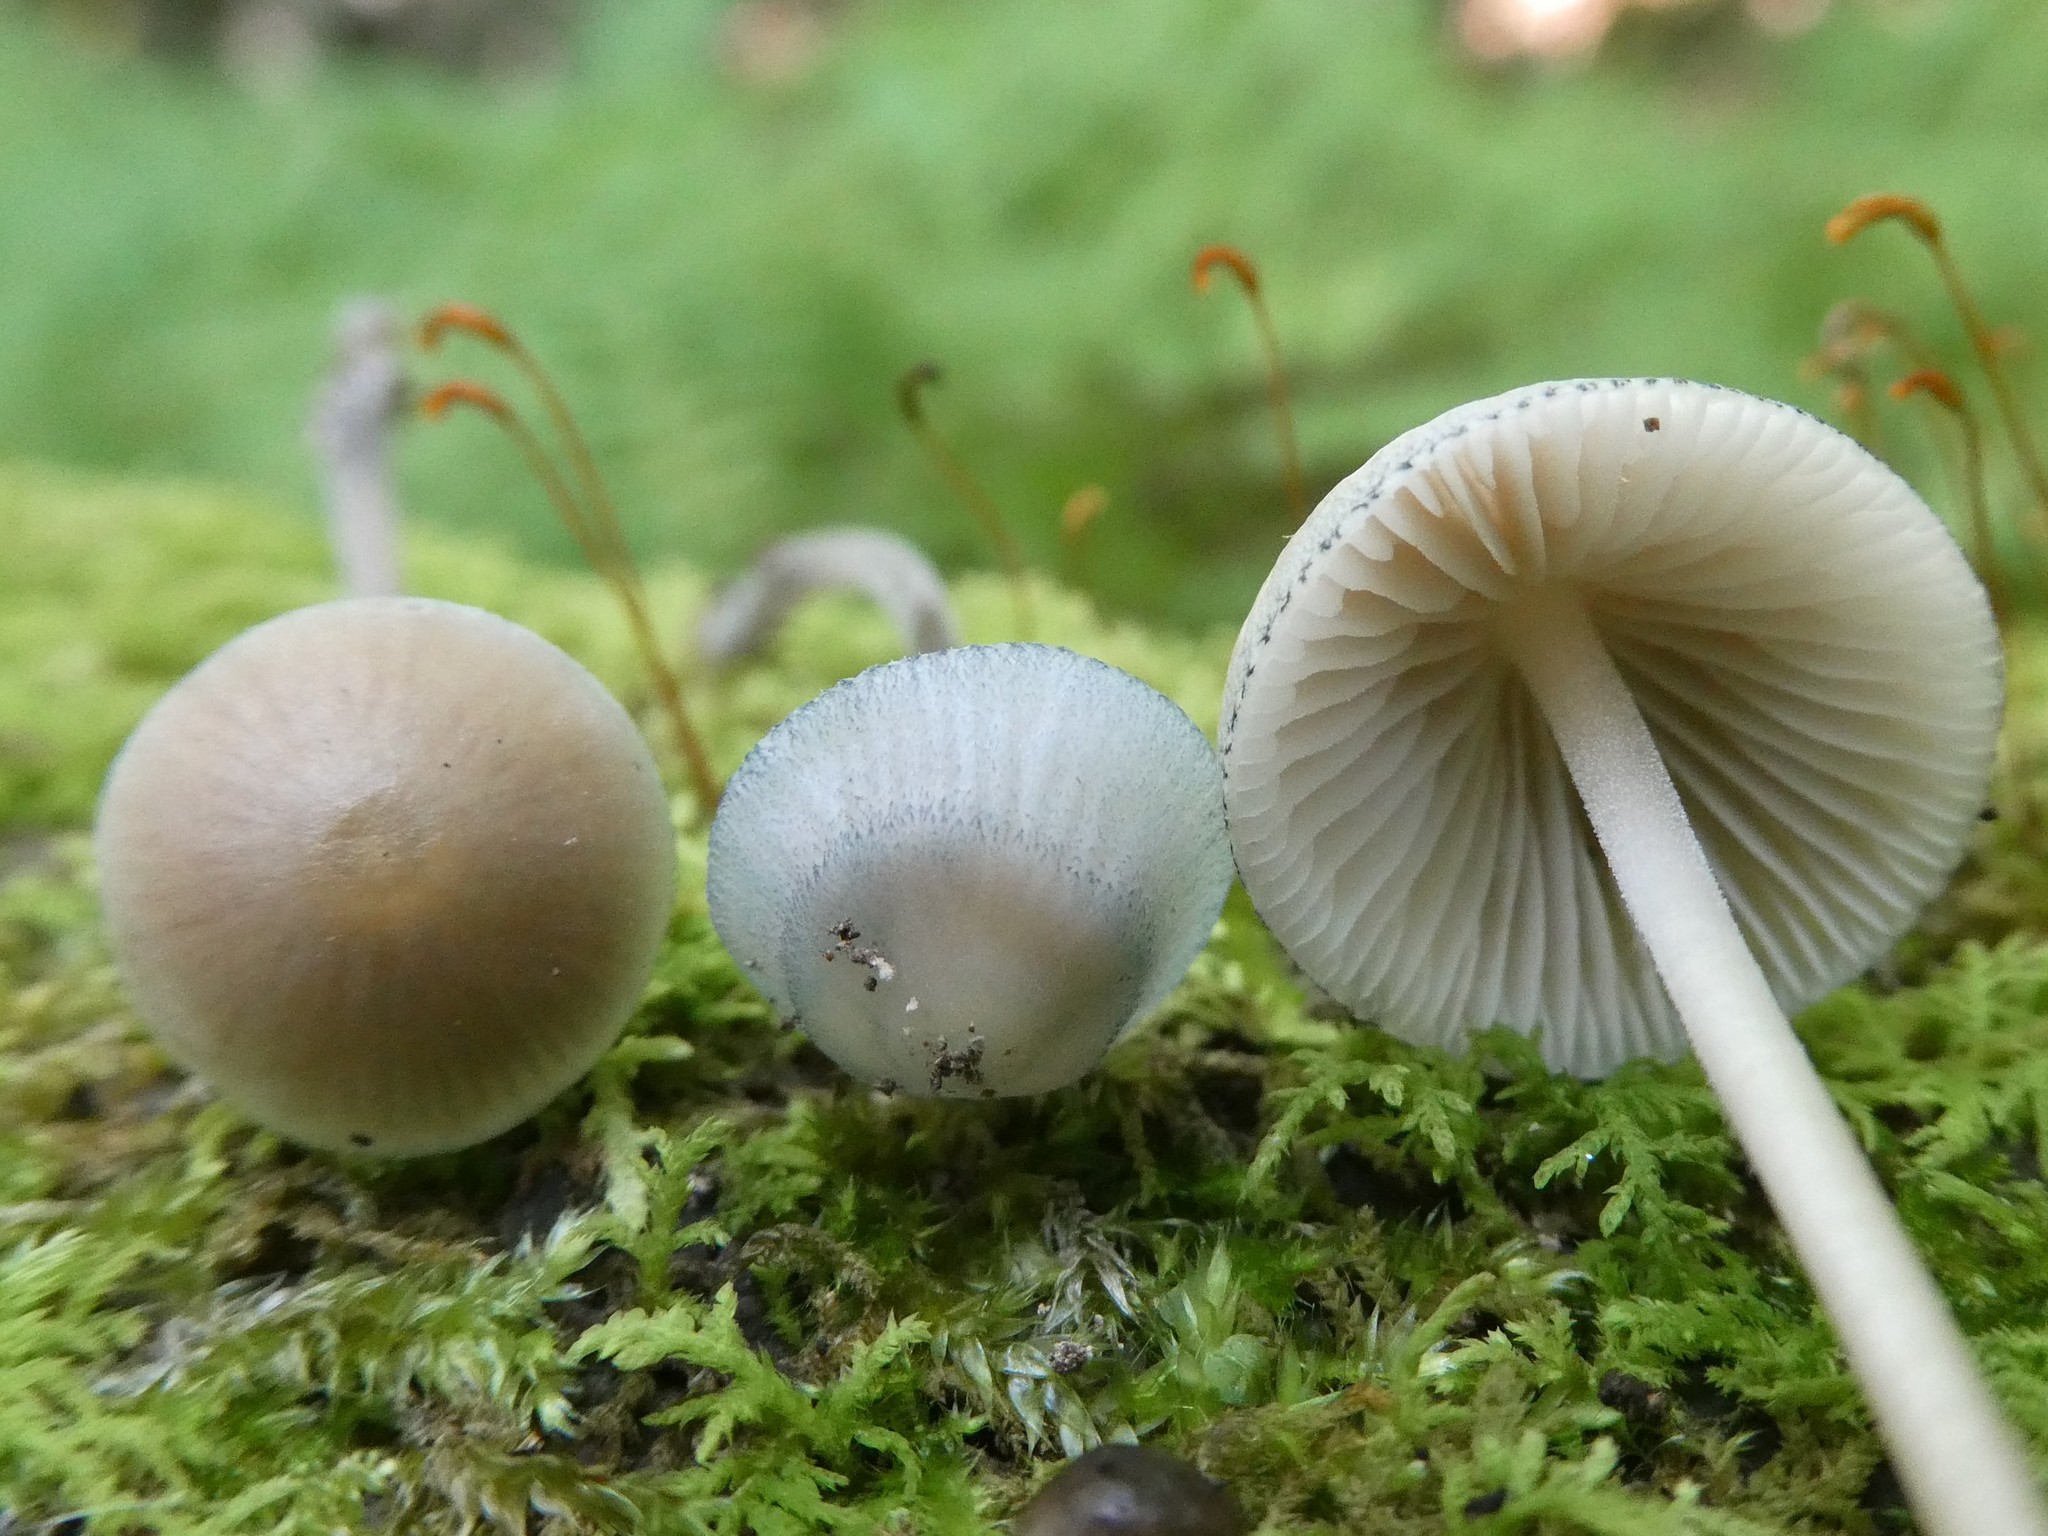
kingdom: Fungi
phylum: Basidiomycota
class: Agaricomycetes
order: Agaricales
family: Mycenaceae
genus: Mycena
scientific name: Mycena subcaerulea
